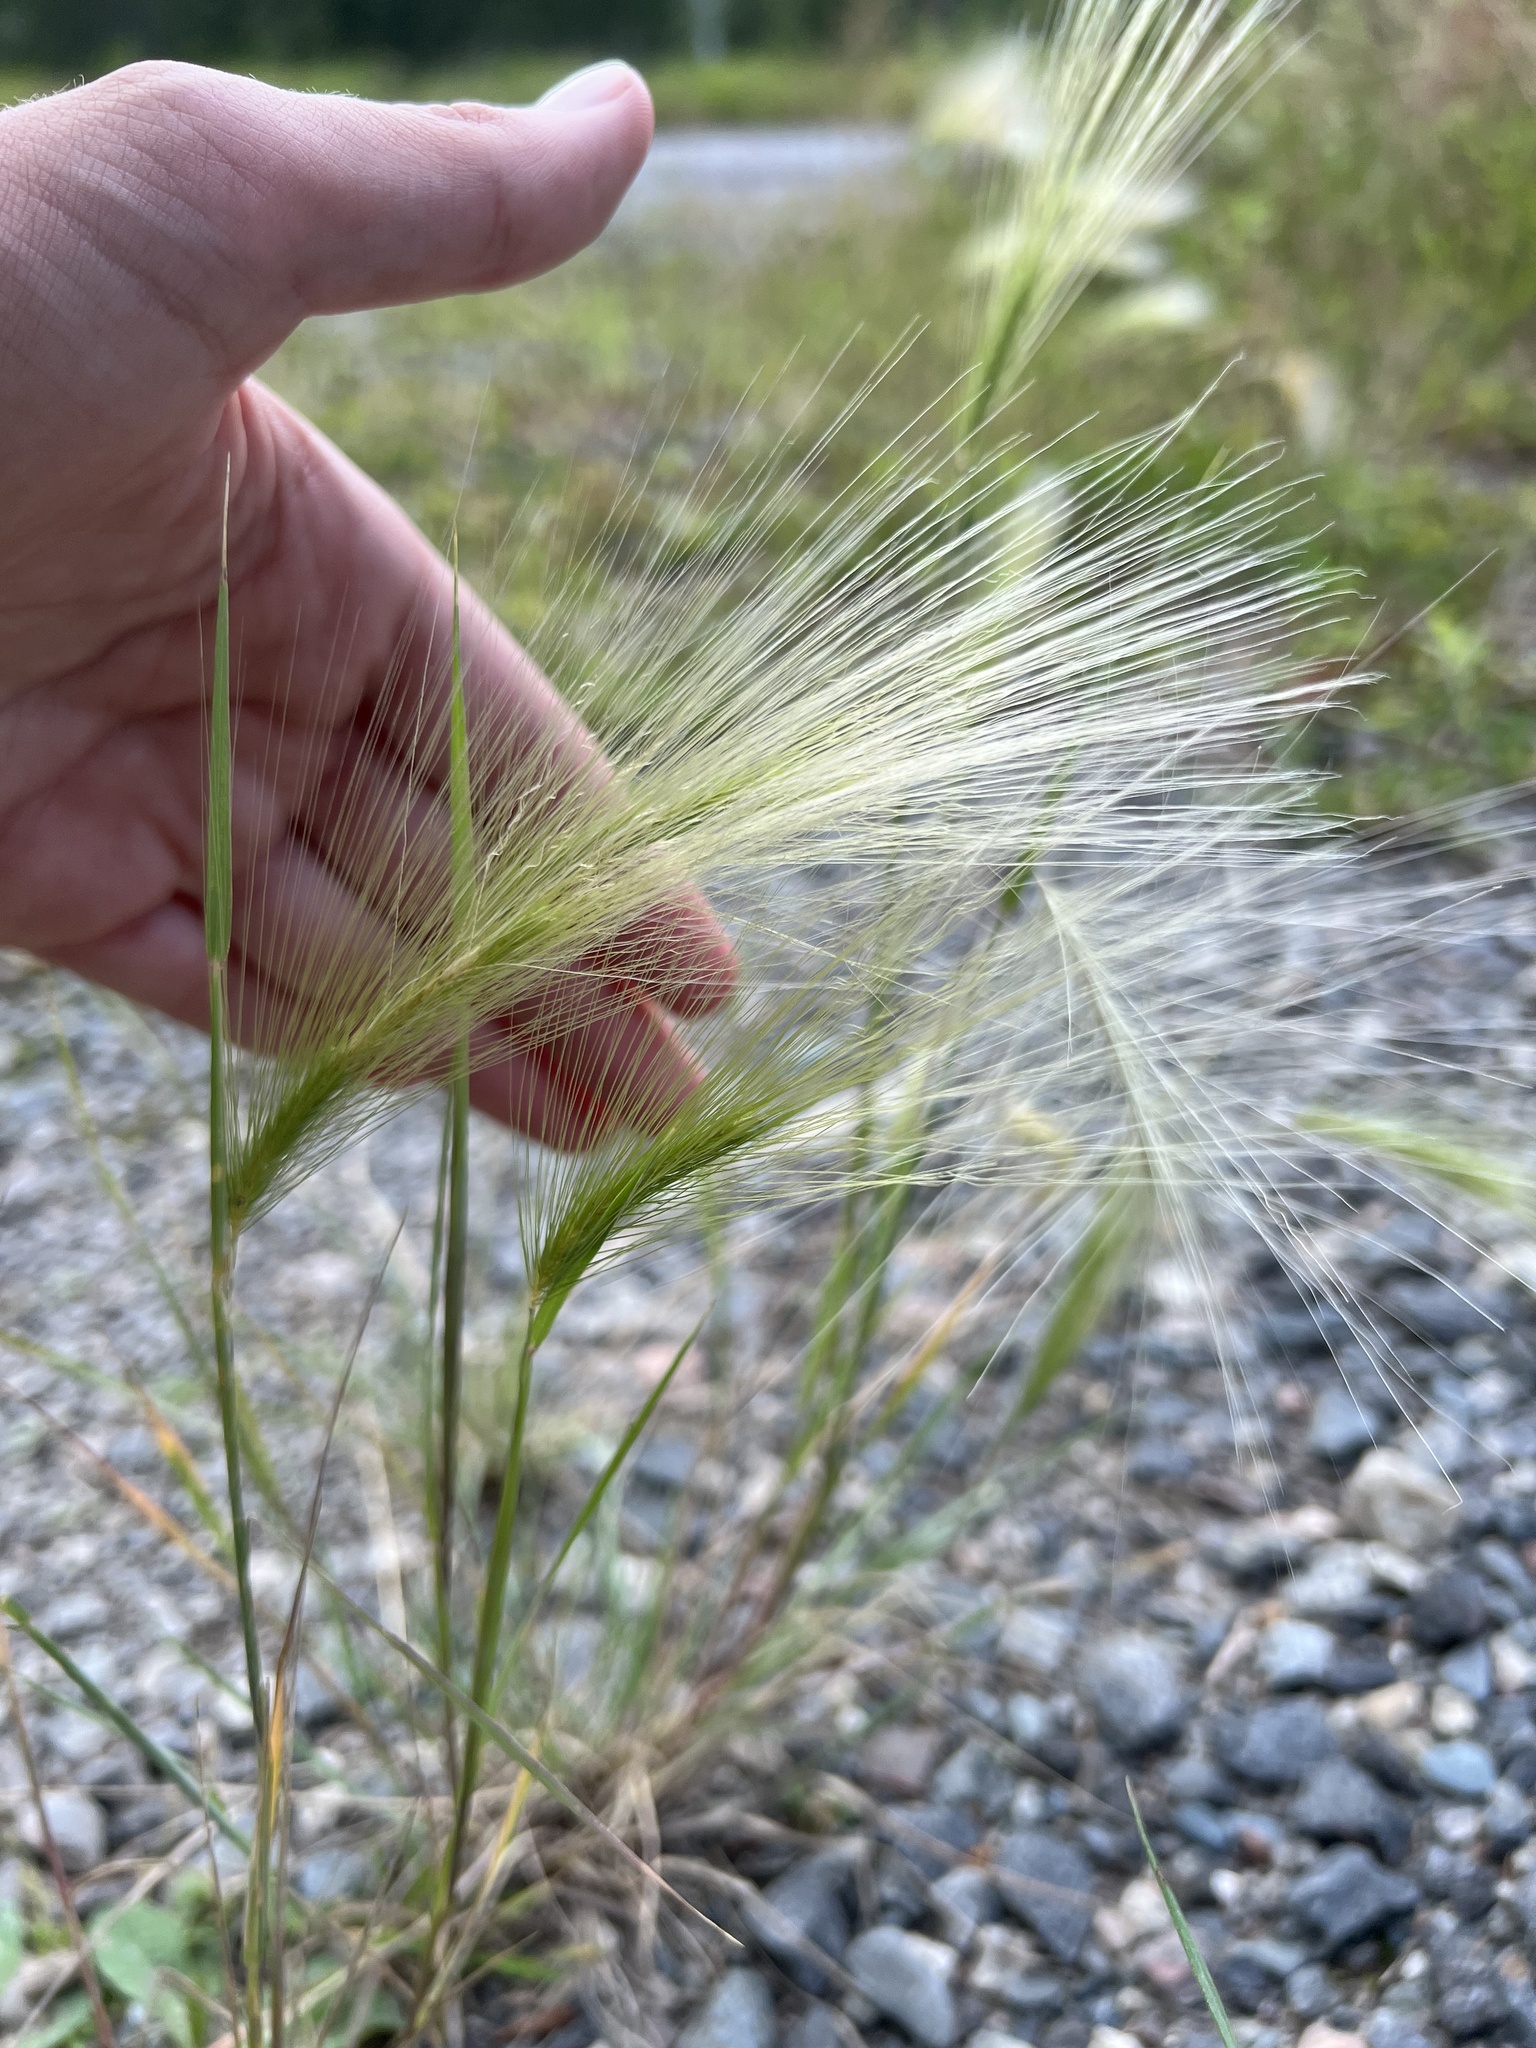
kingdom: Plantae
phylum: Tracheophyta
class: Liliopsida
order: Poales
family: Poaceae
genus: Hordeum
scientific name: Hordeum jubatum
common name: Foxtail barley
